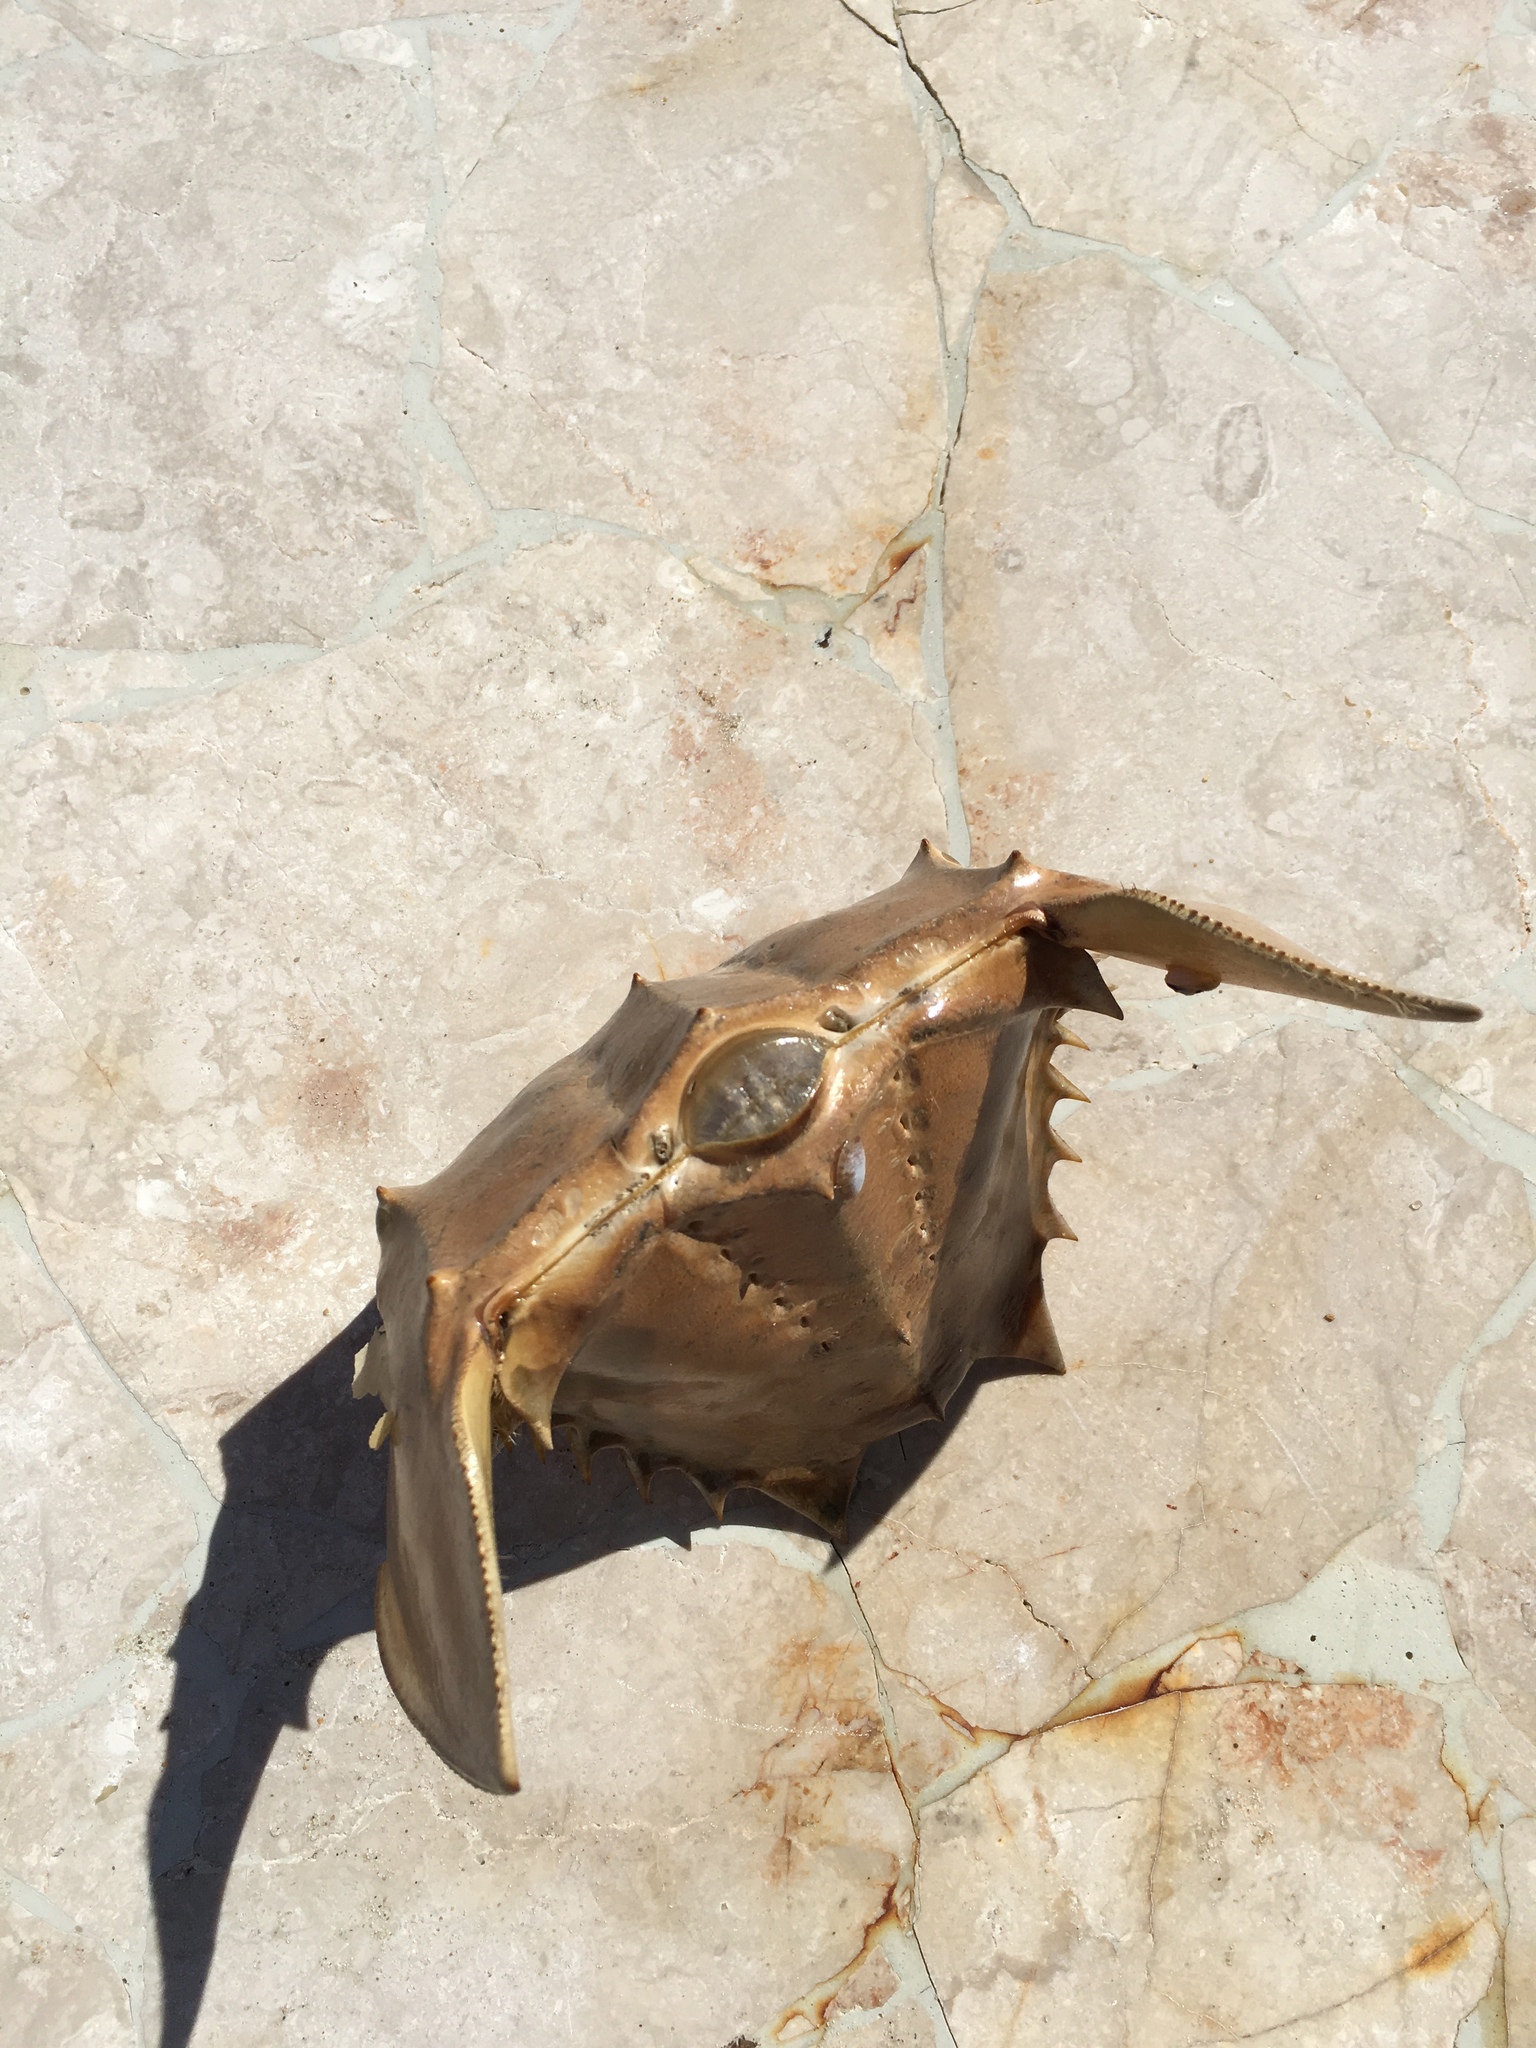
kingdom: Animalia
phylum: Arthropoda
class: Merostomata
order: Xiphosurida
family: Limulidae
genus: Limulus
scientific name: Limulus polyphemus
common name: Horseshoe crab
